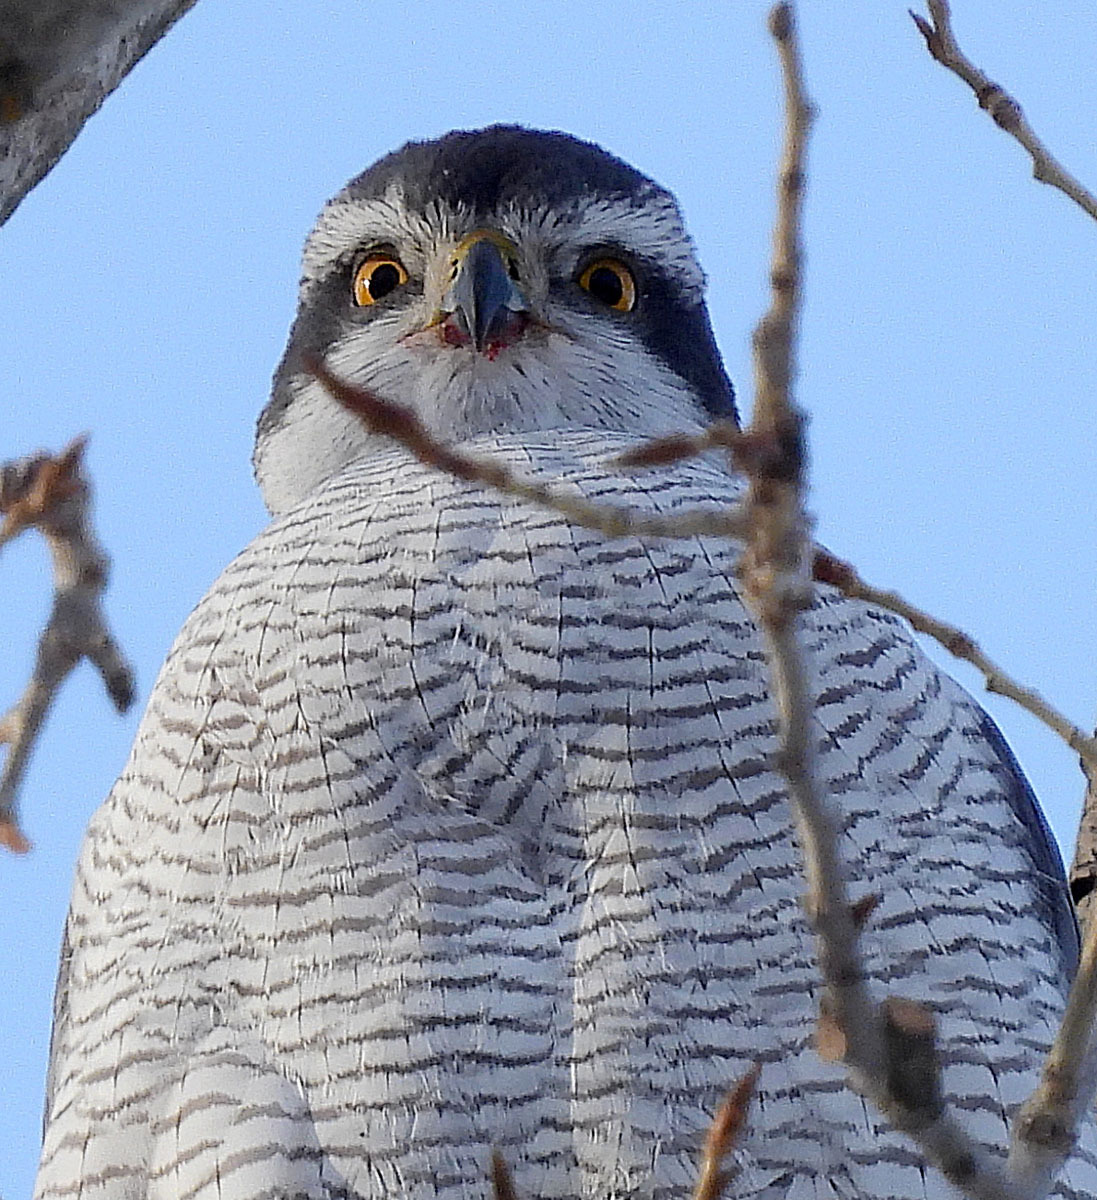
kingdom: Animalia
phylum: Chordata
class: Aves
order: Accipitriformes
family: Accipitridae
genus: Accipiter
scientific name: Accipiter gentilis
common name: Northern goshawk
